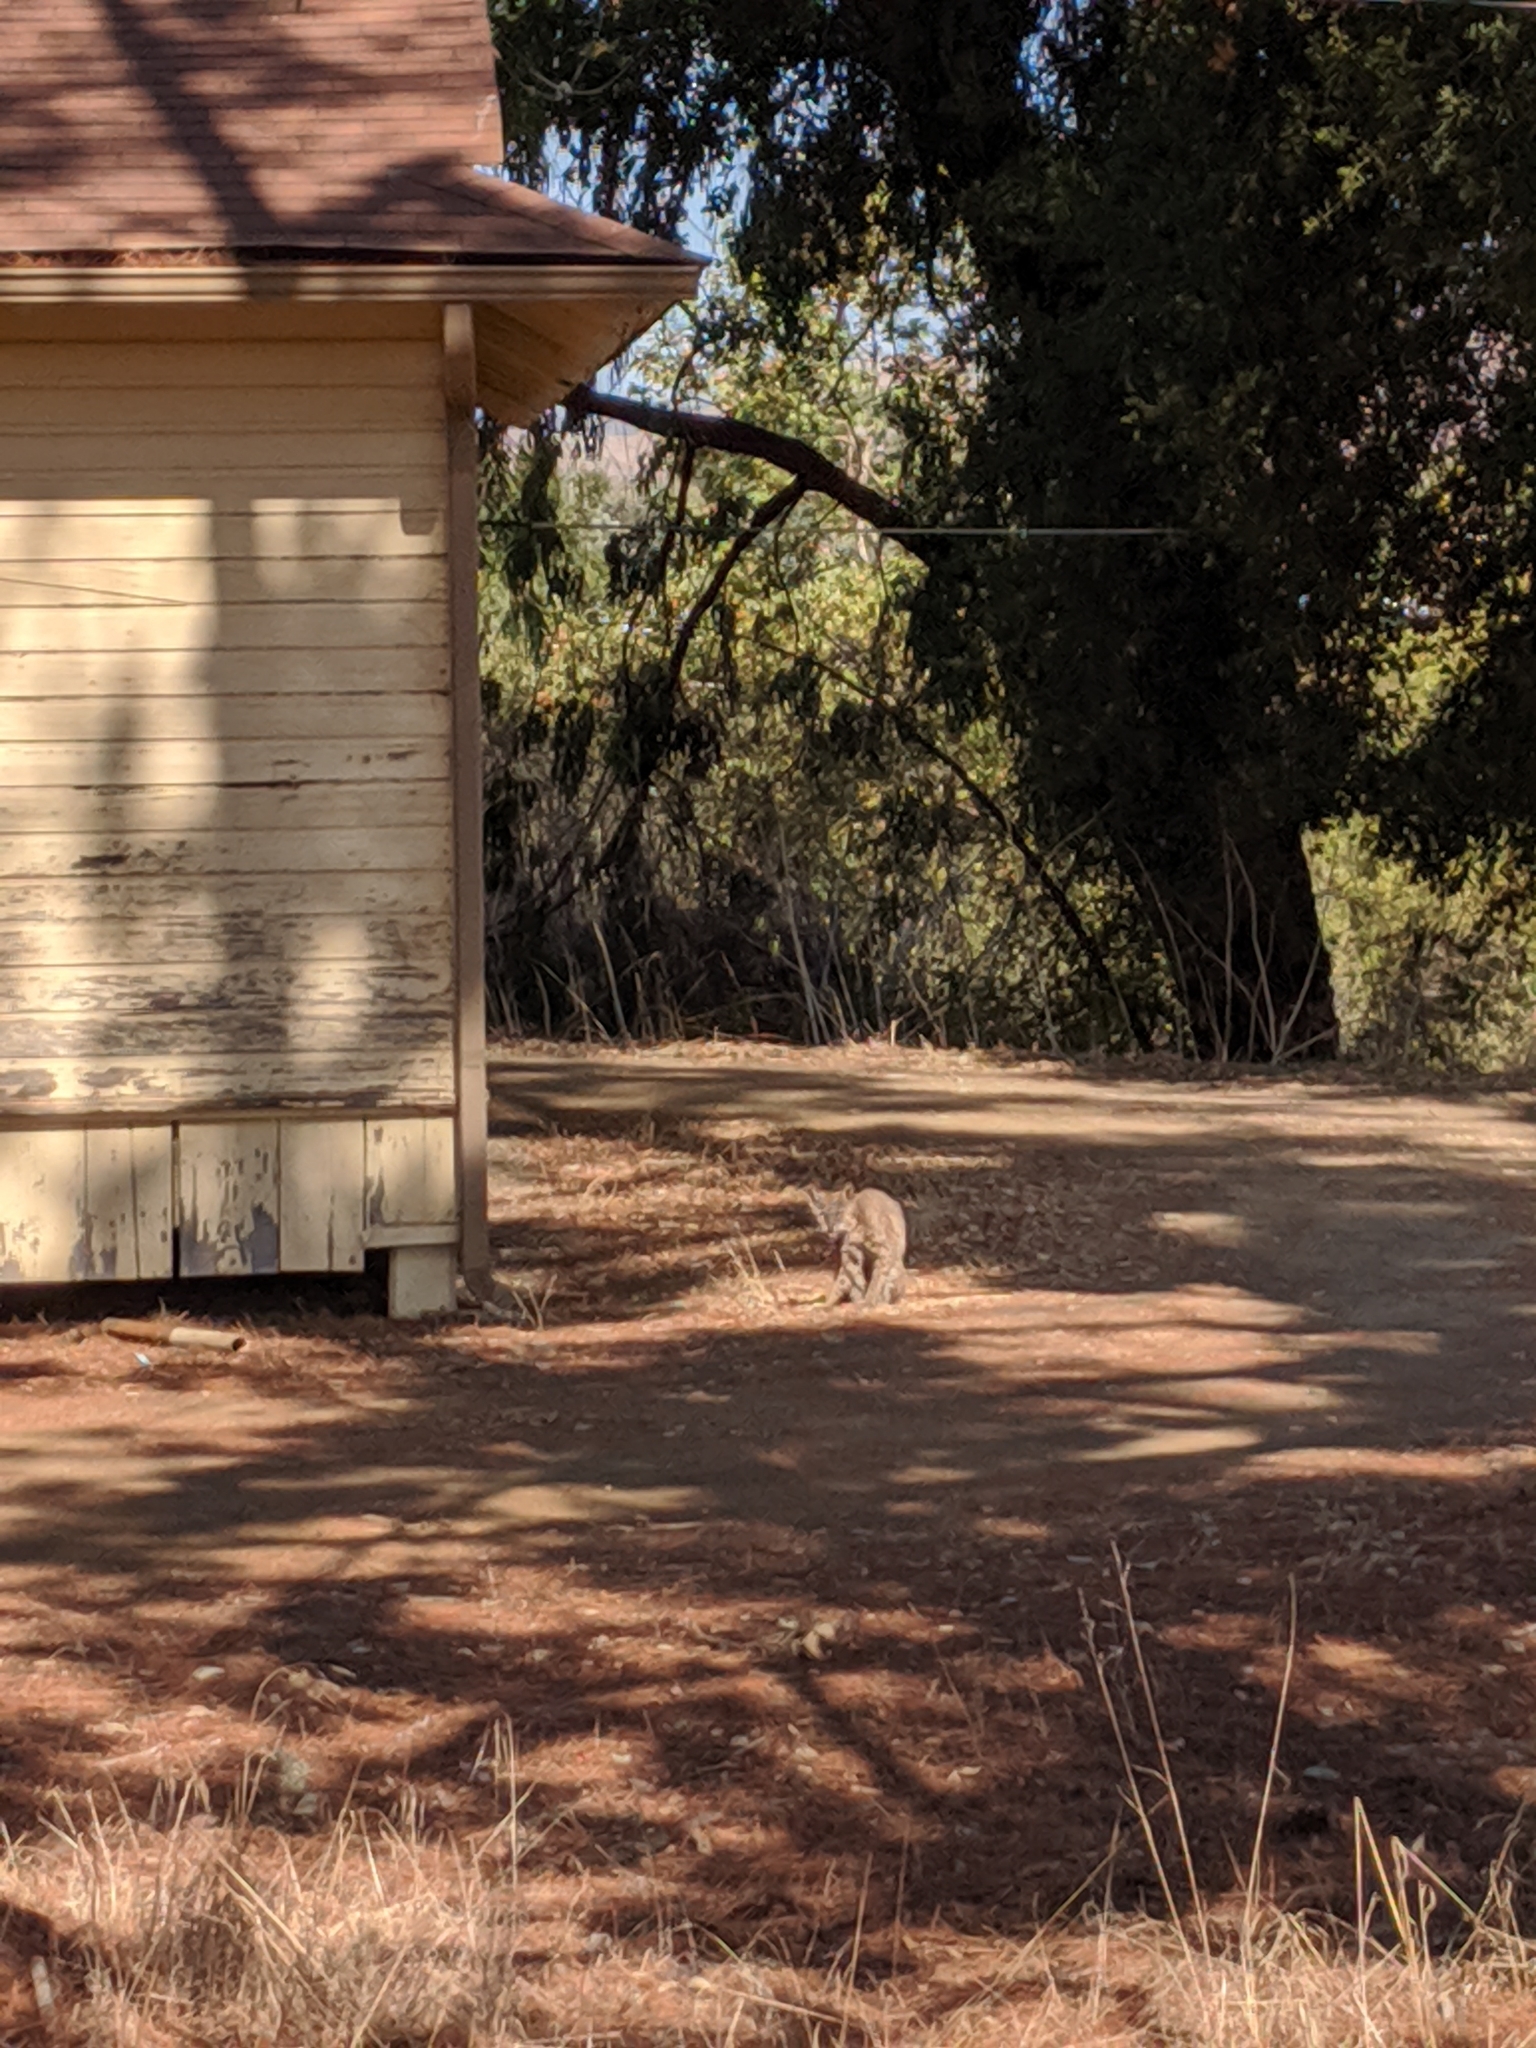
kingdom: Animalia
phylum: Chordata
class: Mammalia
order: Carnivora
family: Felidae
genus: Lynx
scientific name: Lynx rufus
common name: Bobcat
